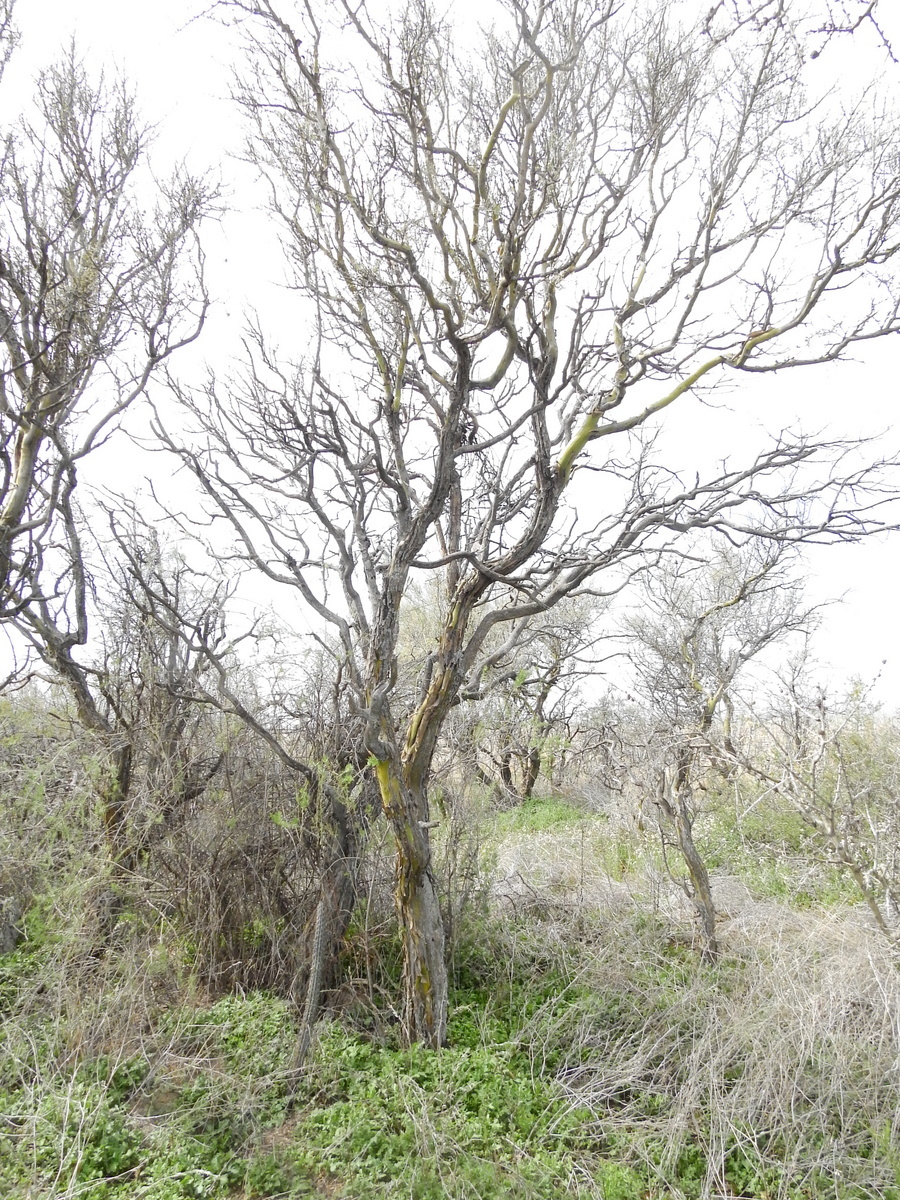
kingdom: Plantae
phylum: Tracheophyta
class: Magnoliopsida
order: Fabales
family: Fabaceae
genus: Geoffroea
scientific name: Geoffroea decorticans
